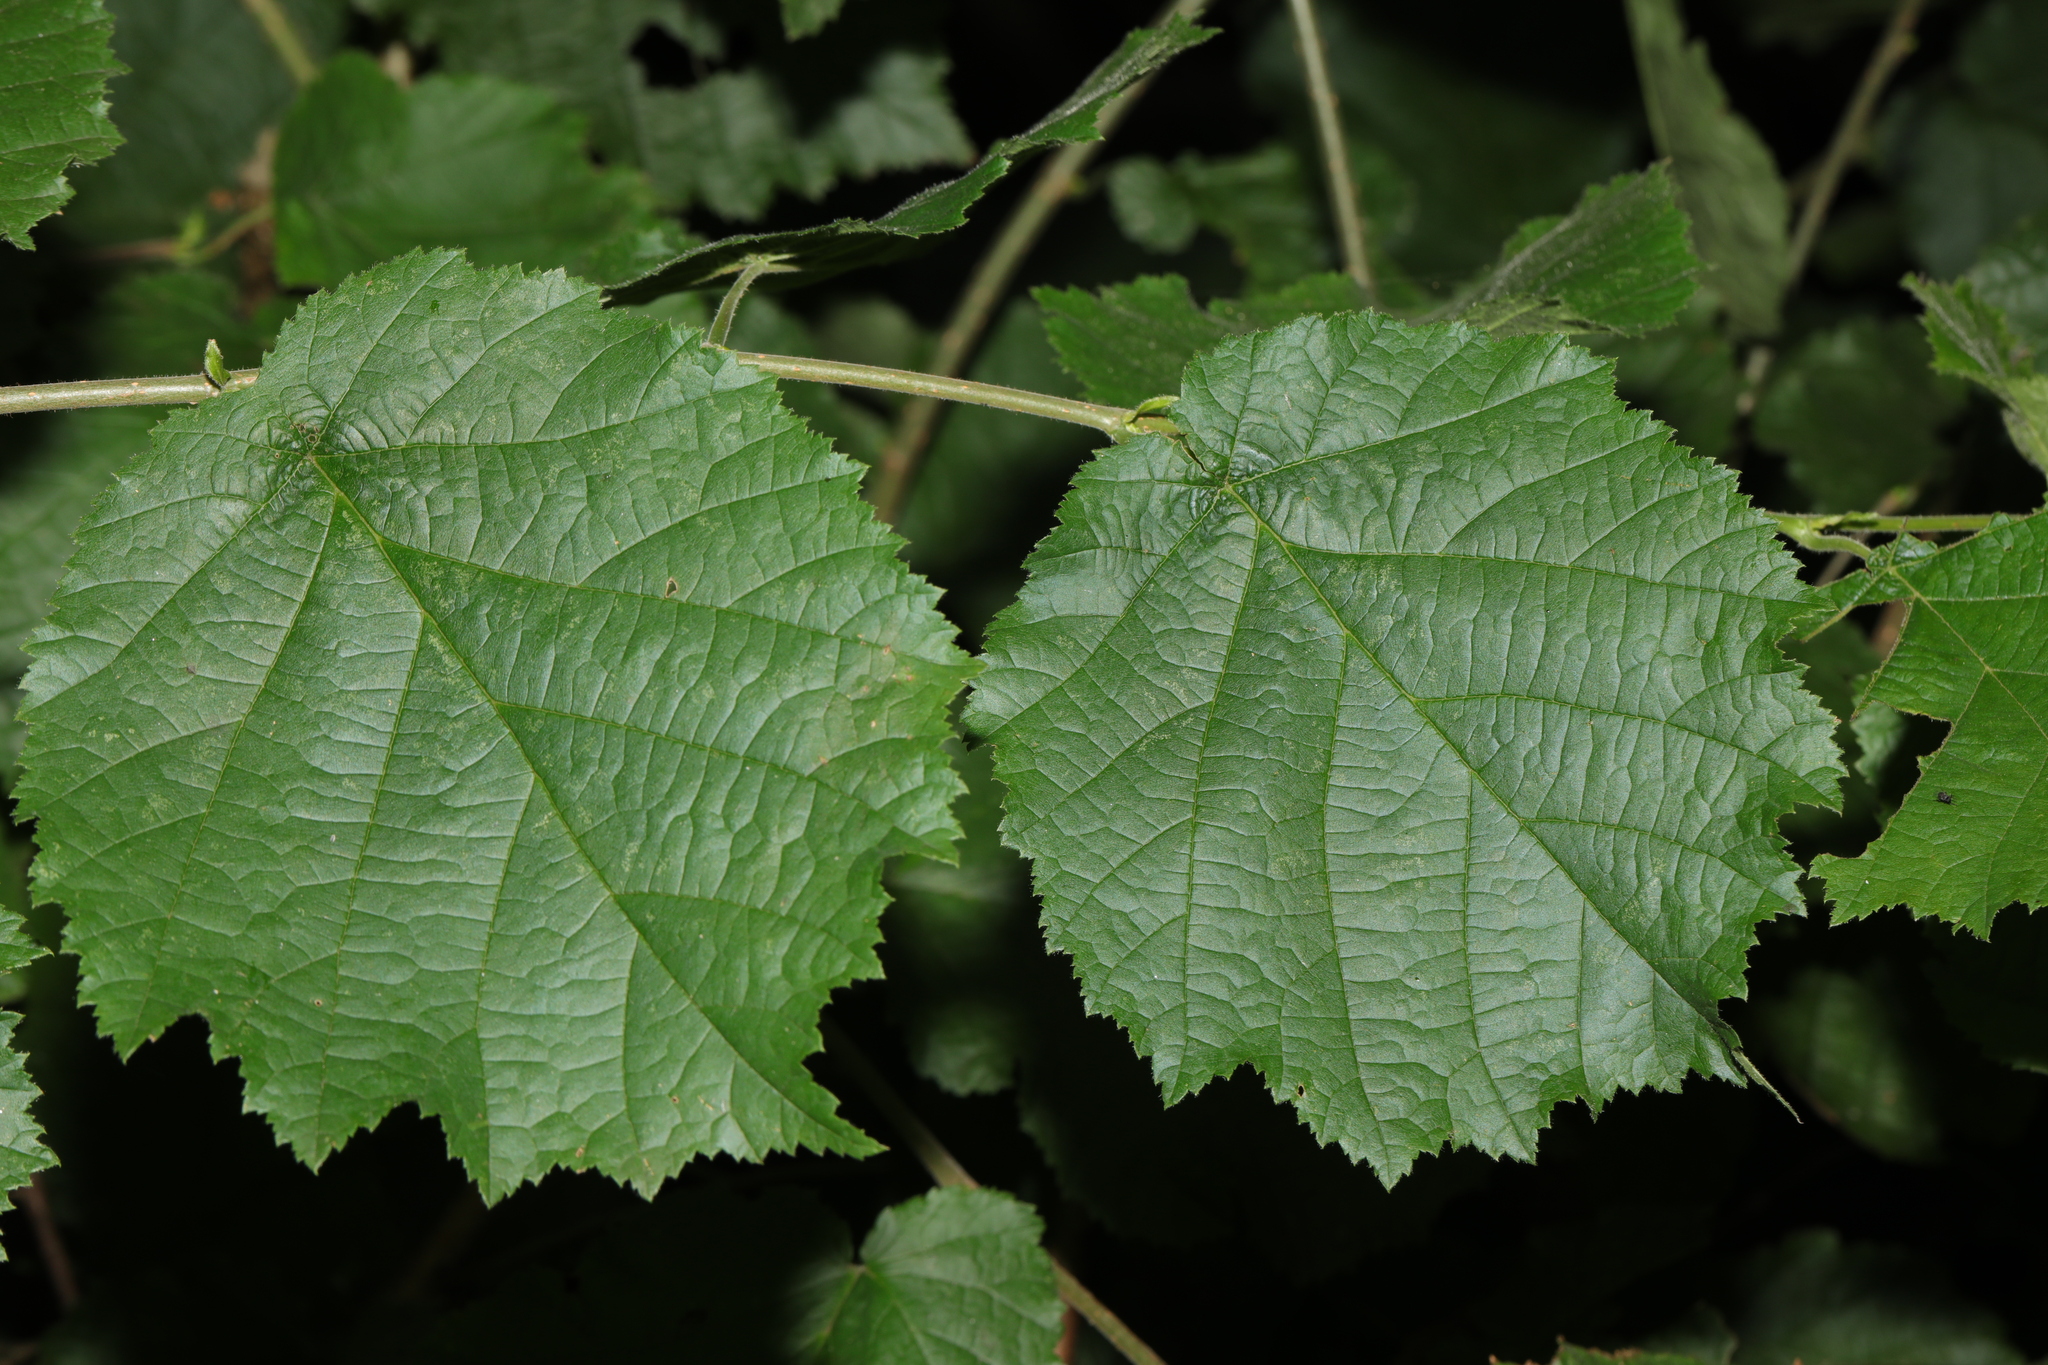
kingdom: Plantae
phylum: Tracheophyta
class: Magnoliopsida
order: Fagales
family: Betulaceae
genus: Corylus
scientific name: Corylus avellana
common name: European hazel
